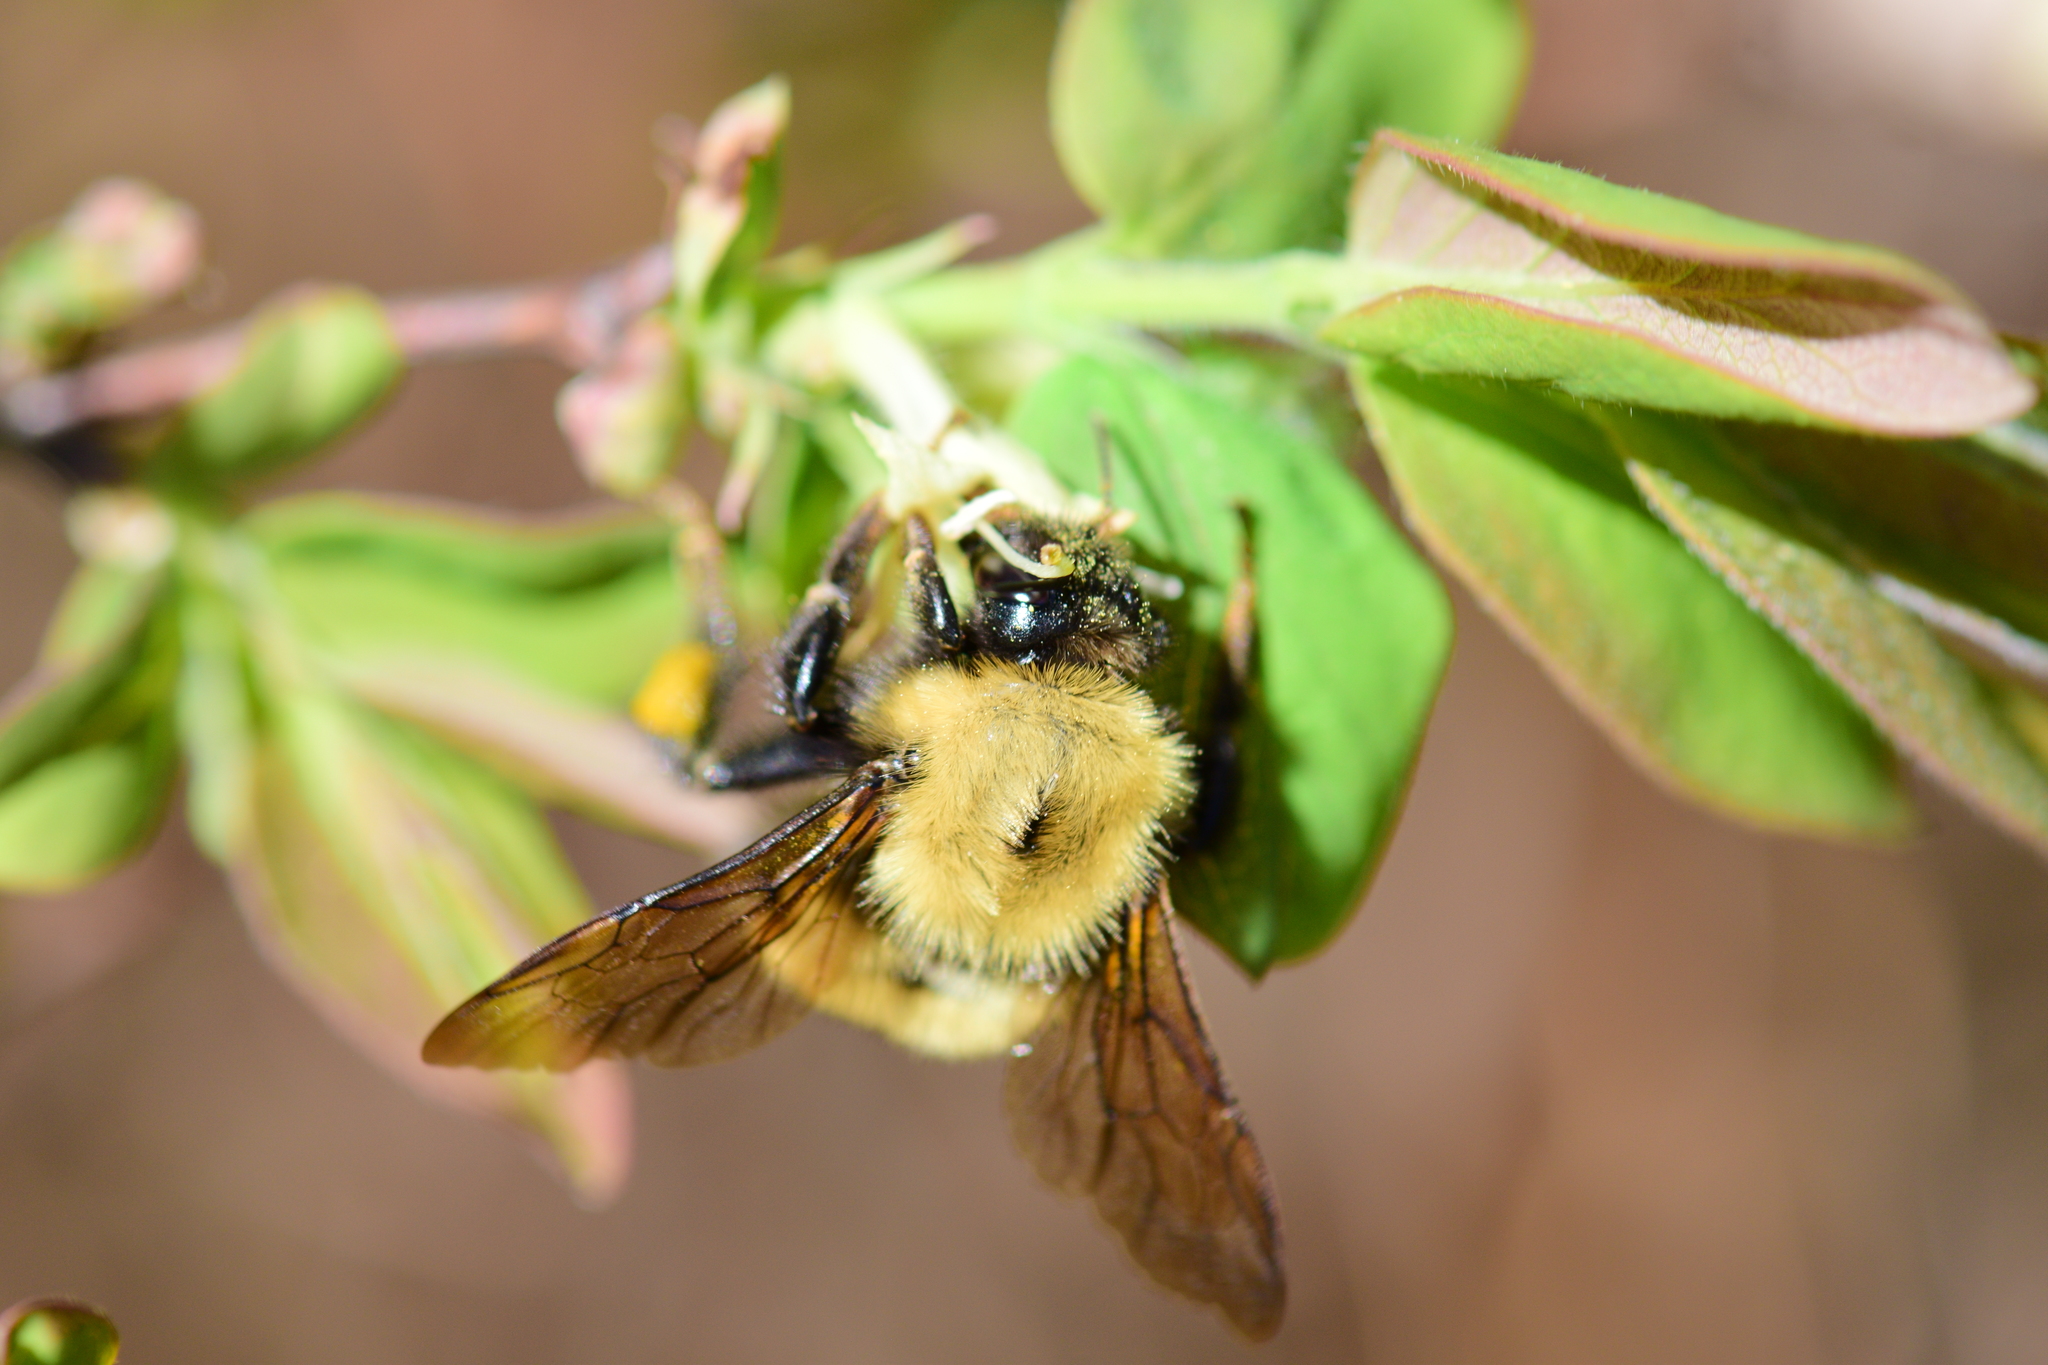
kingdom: Animalia
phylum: Arthropoda
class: Insecta
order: Hymenoptera
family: Apidae
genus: Bombus
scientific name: Bombus perplexus
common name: Confusing bumble bee
